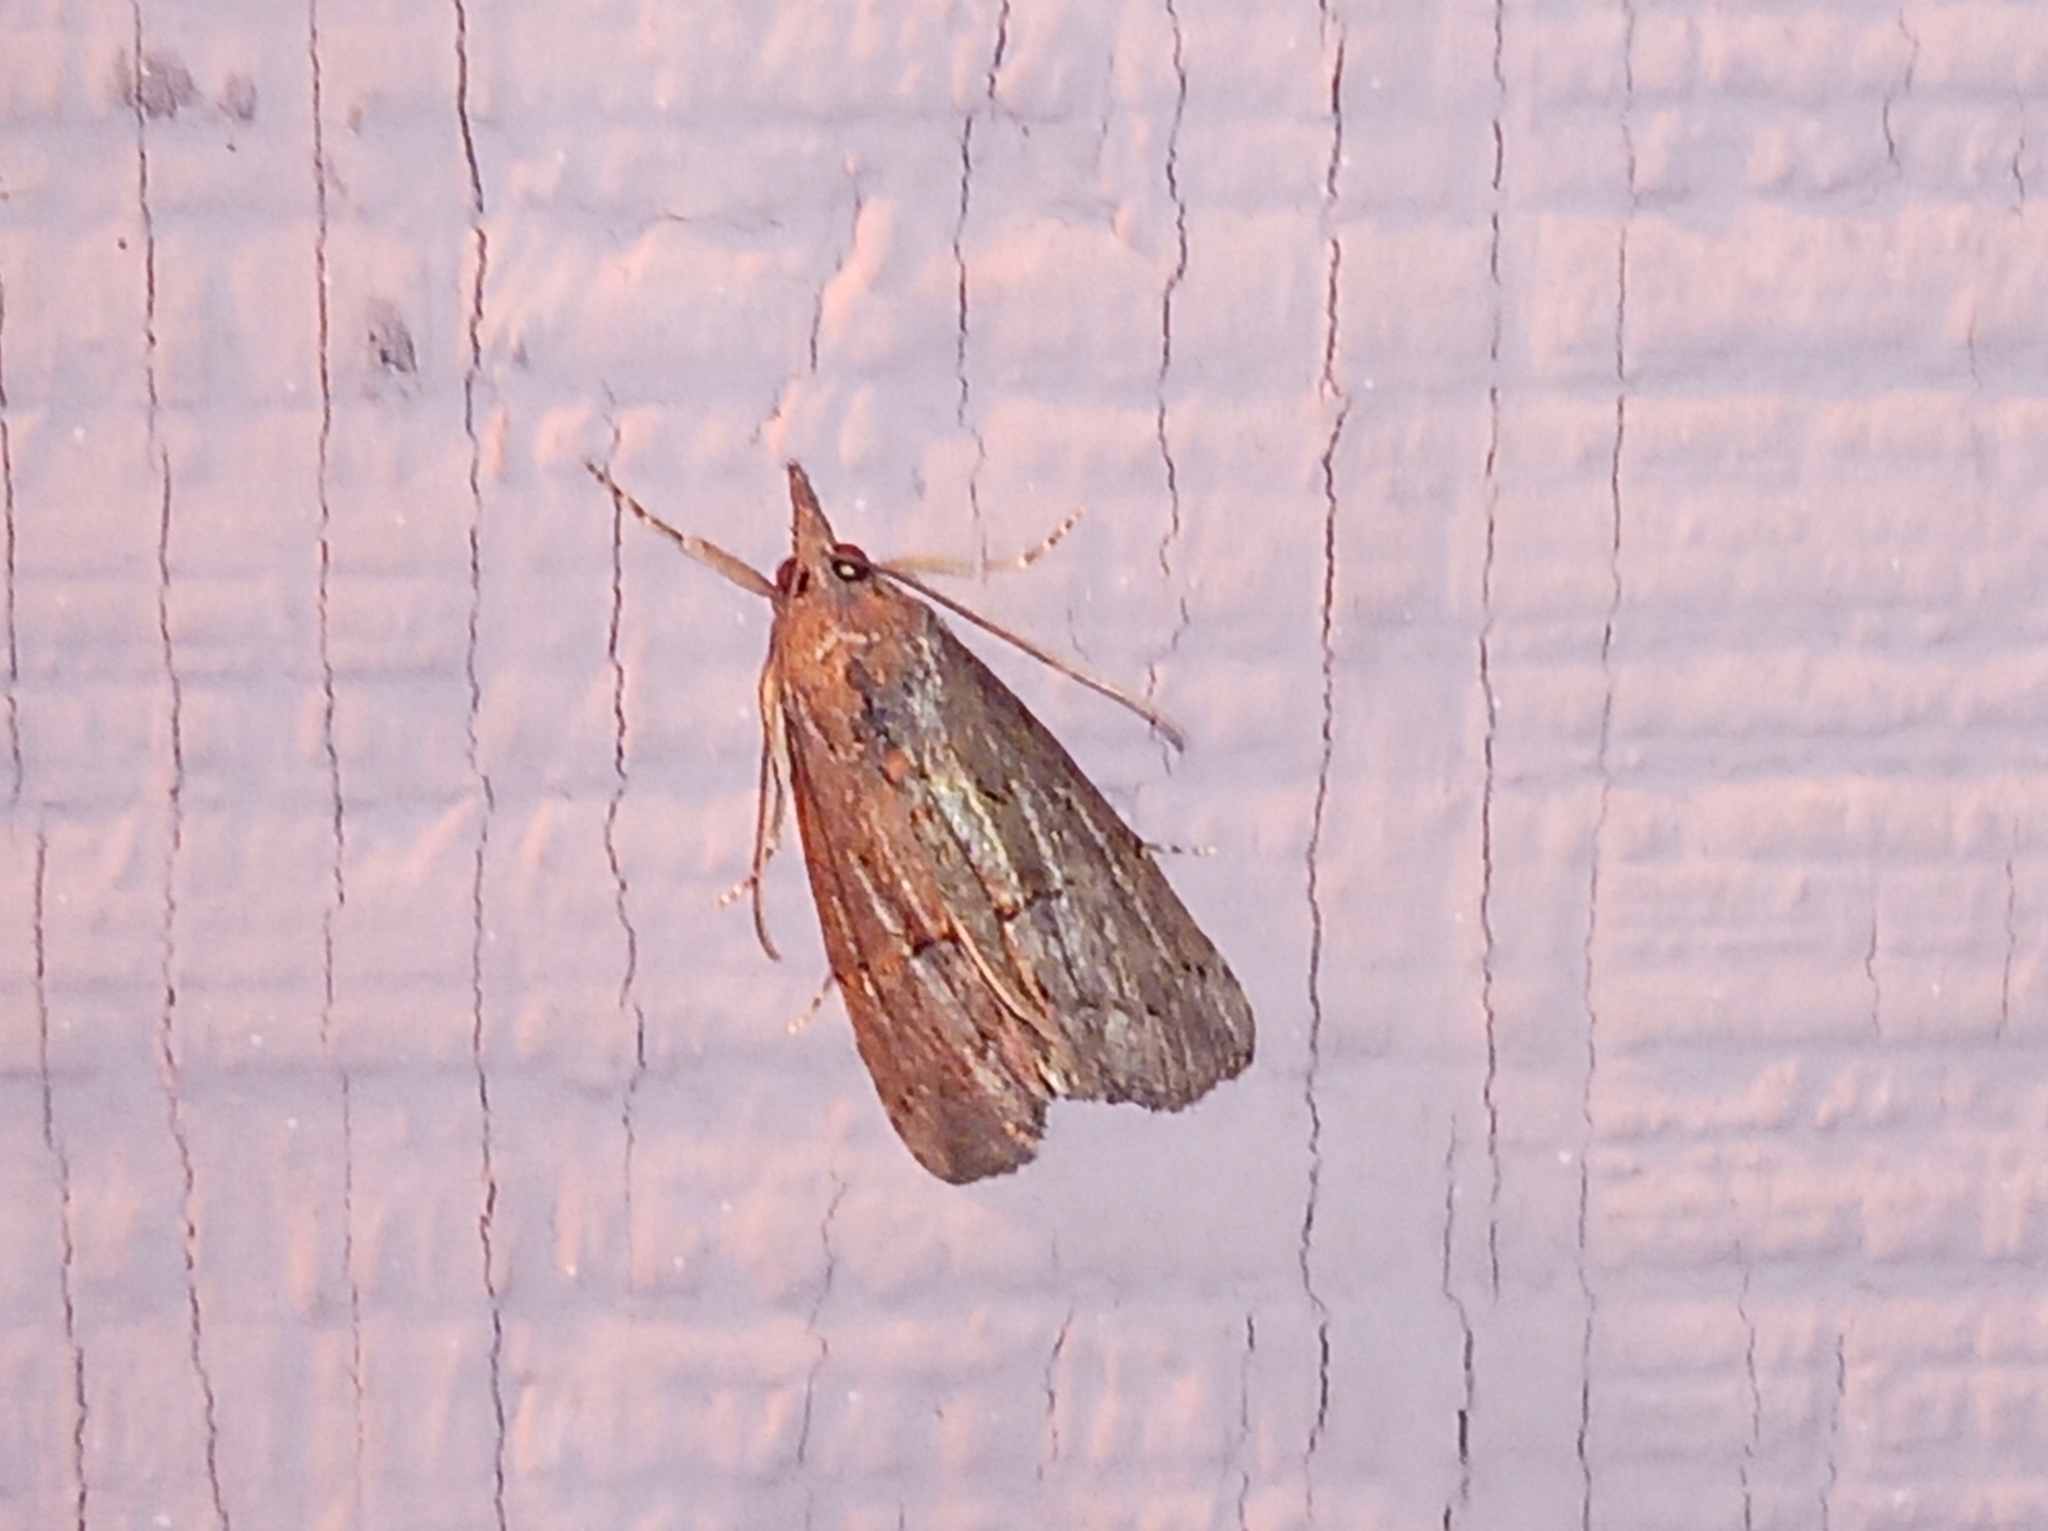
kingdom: Animalia
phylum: Arthropoda
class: Insecta
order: Lepidoptera
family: Erebidae
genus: Hypena
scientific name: Hypena scabra
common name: Green cloverworm
